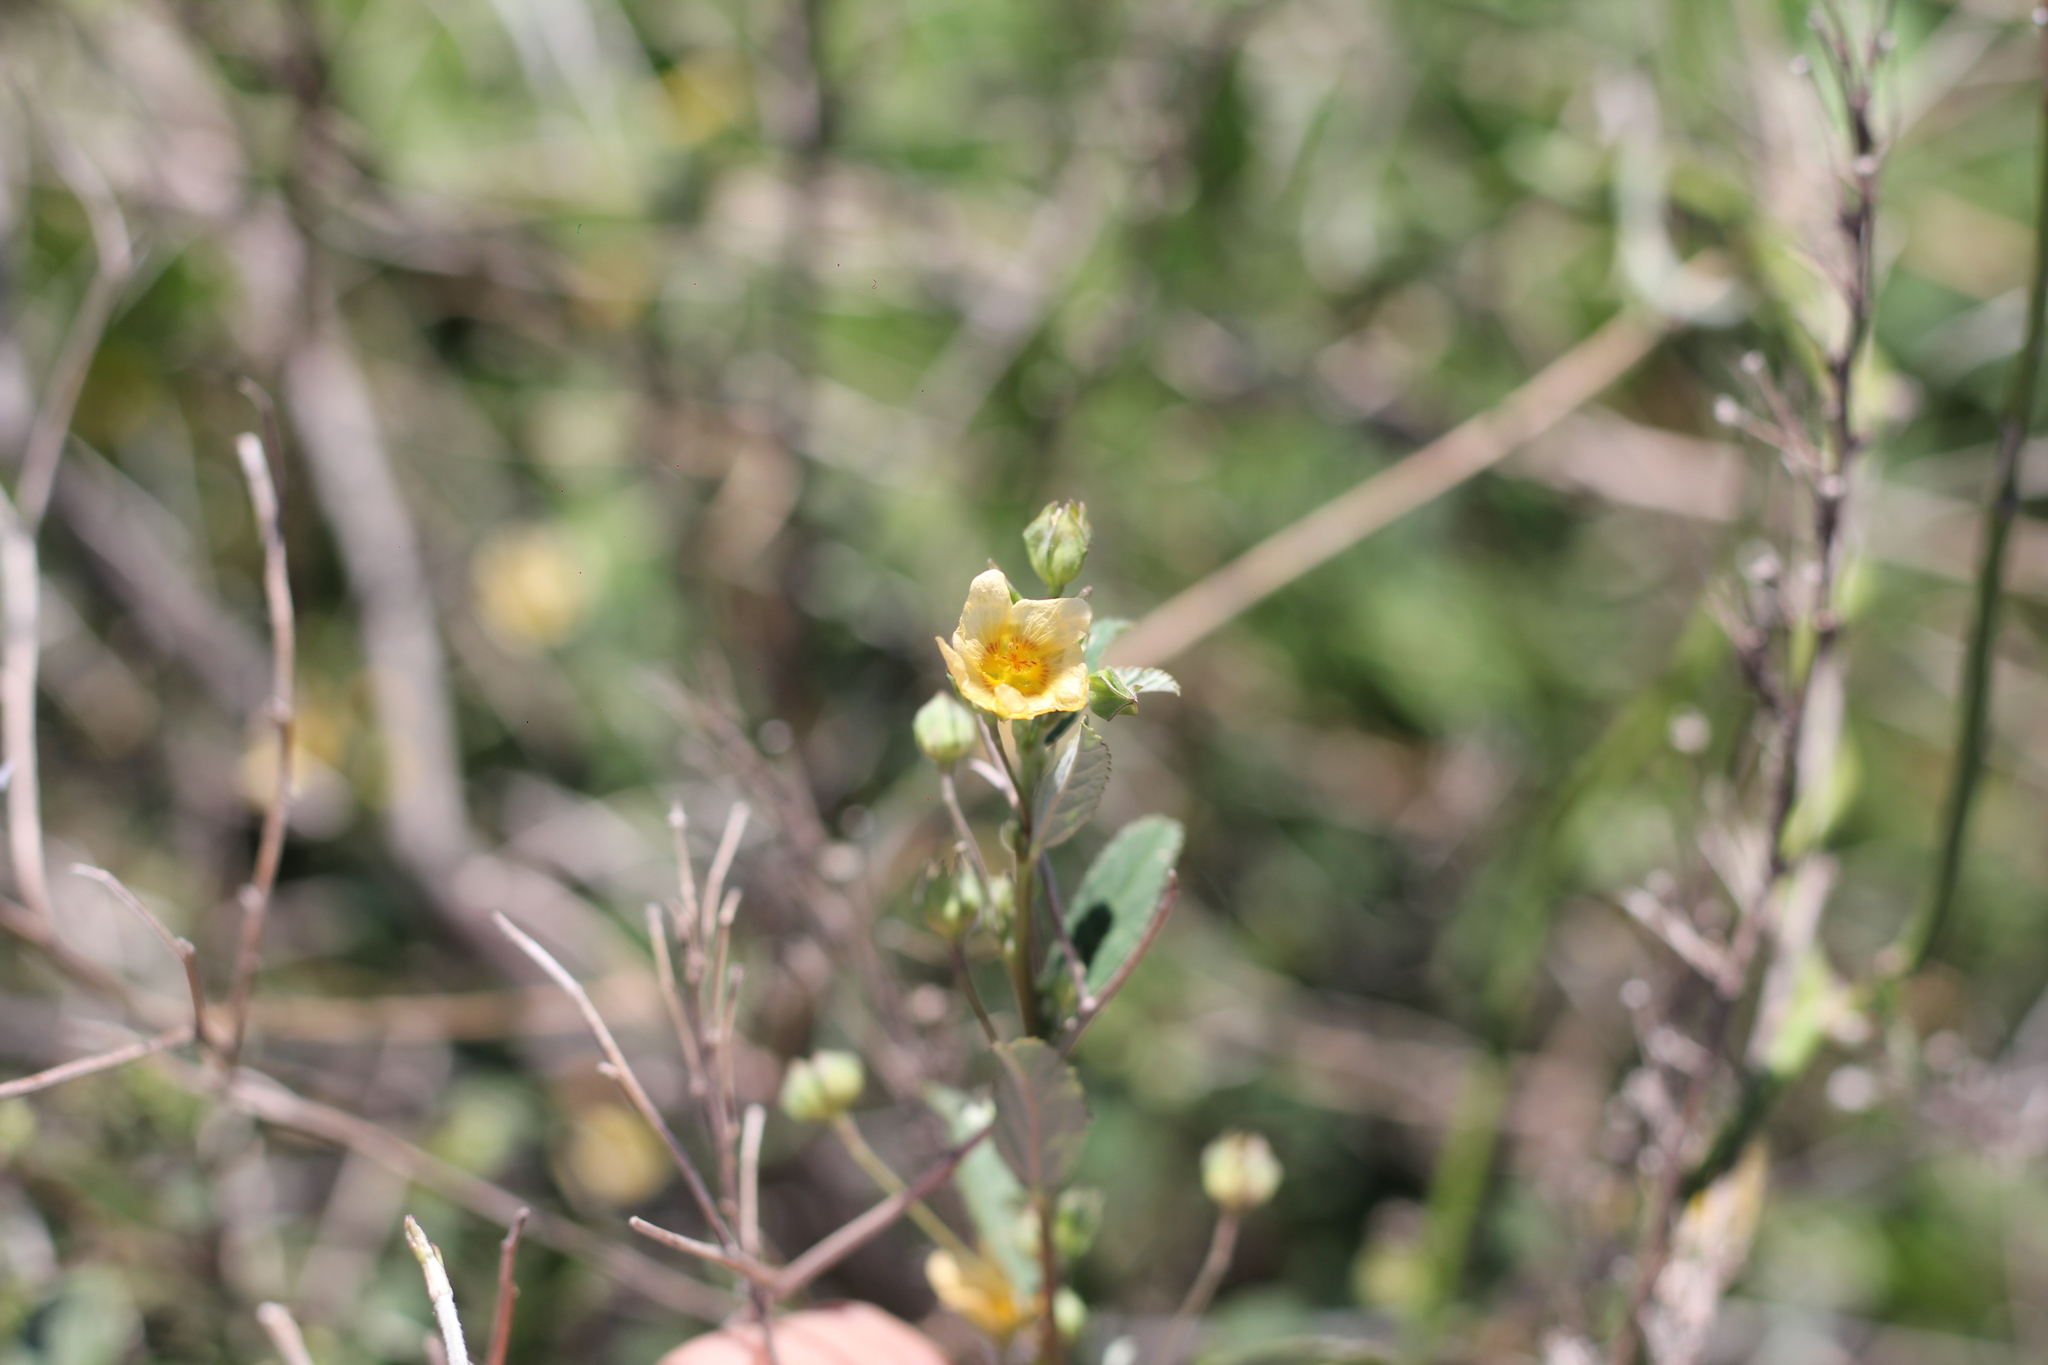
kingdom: Plantae
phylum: Tracheophyta
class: Magnoliopsida
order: Malvales
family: Malvaceae
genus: Sida
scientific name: Sida rhombifolia
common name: Queensland-hemp
